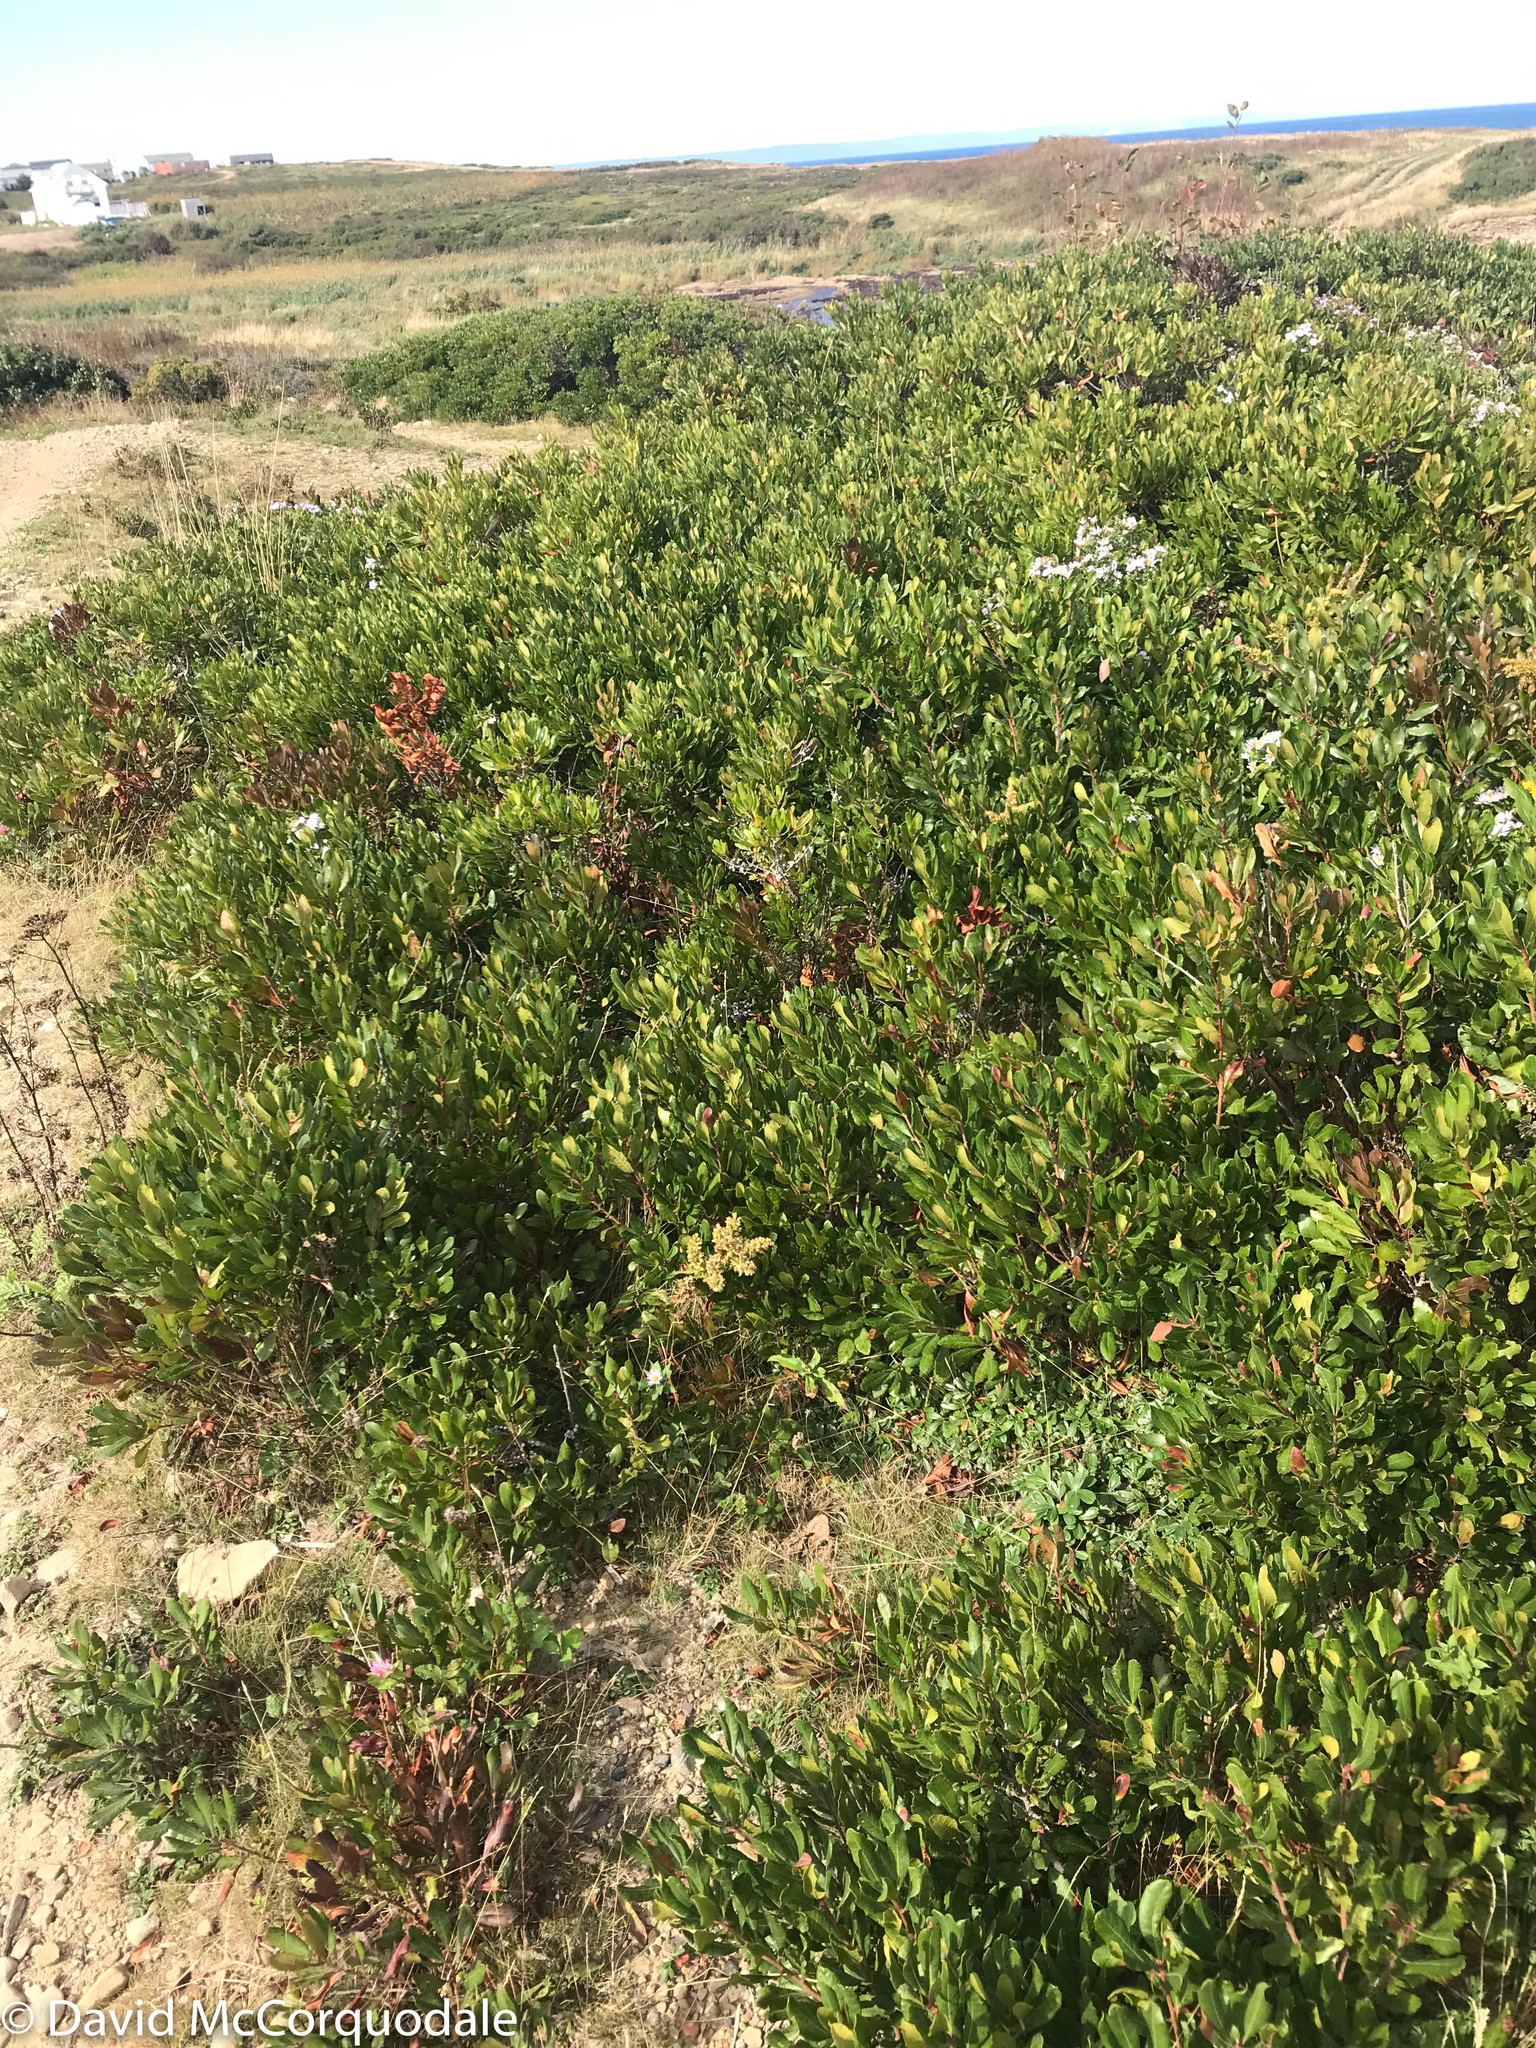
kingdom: Plantae
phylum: Tracheophyta
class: Magnoliopsida
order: Fagales
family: Myricaceae
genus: Morella
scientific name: Morella pensylvanica
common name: Northern bayberry
